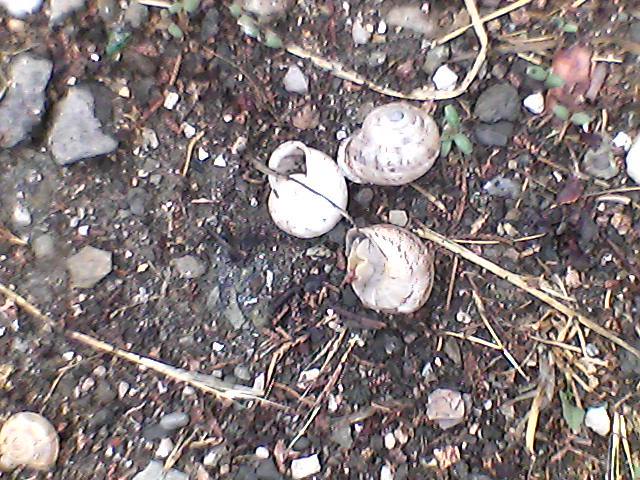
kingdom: Animalia
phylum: Mollusca
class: Gastropoda
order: Stylommatophora
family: Helicidae
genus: Eobania
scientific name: Eobania vermiculata
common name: Chocolateband snail
